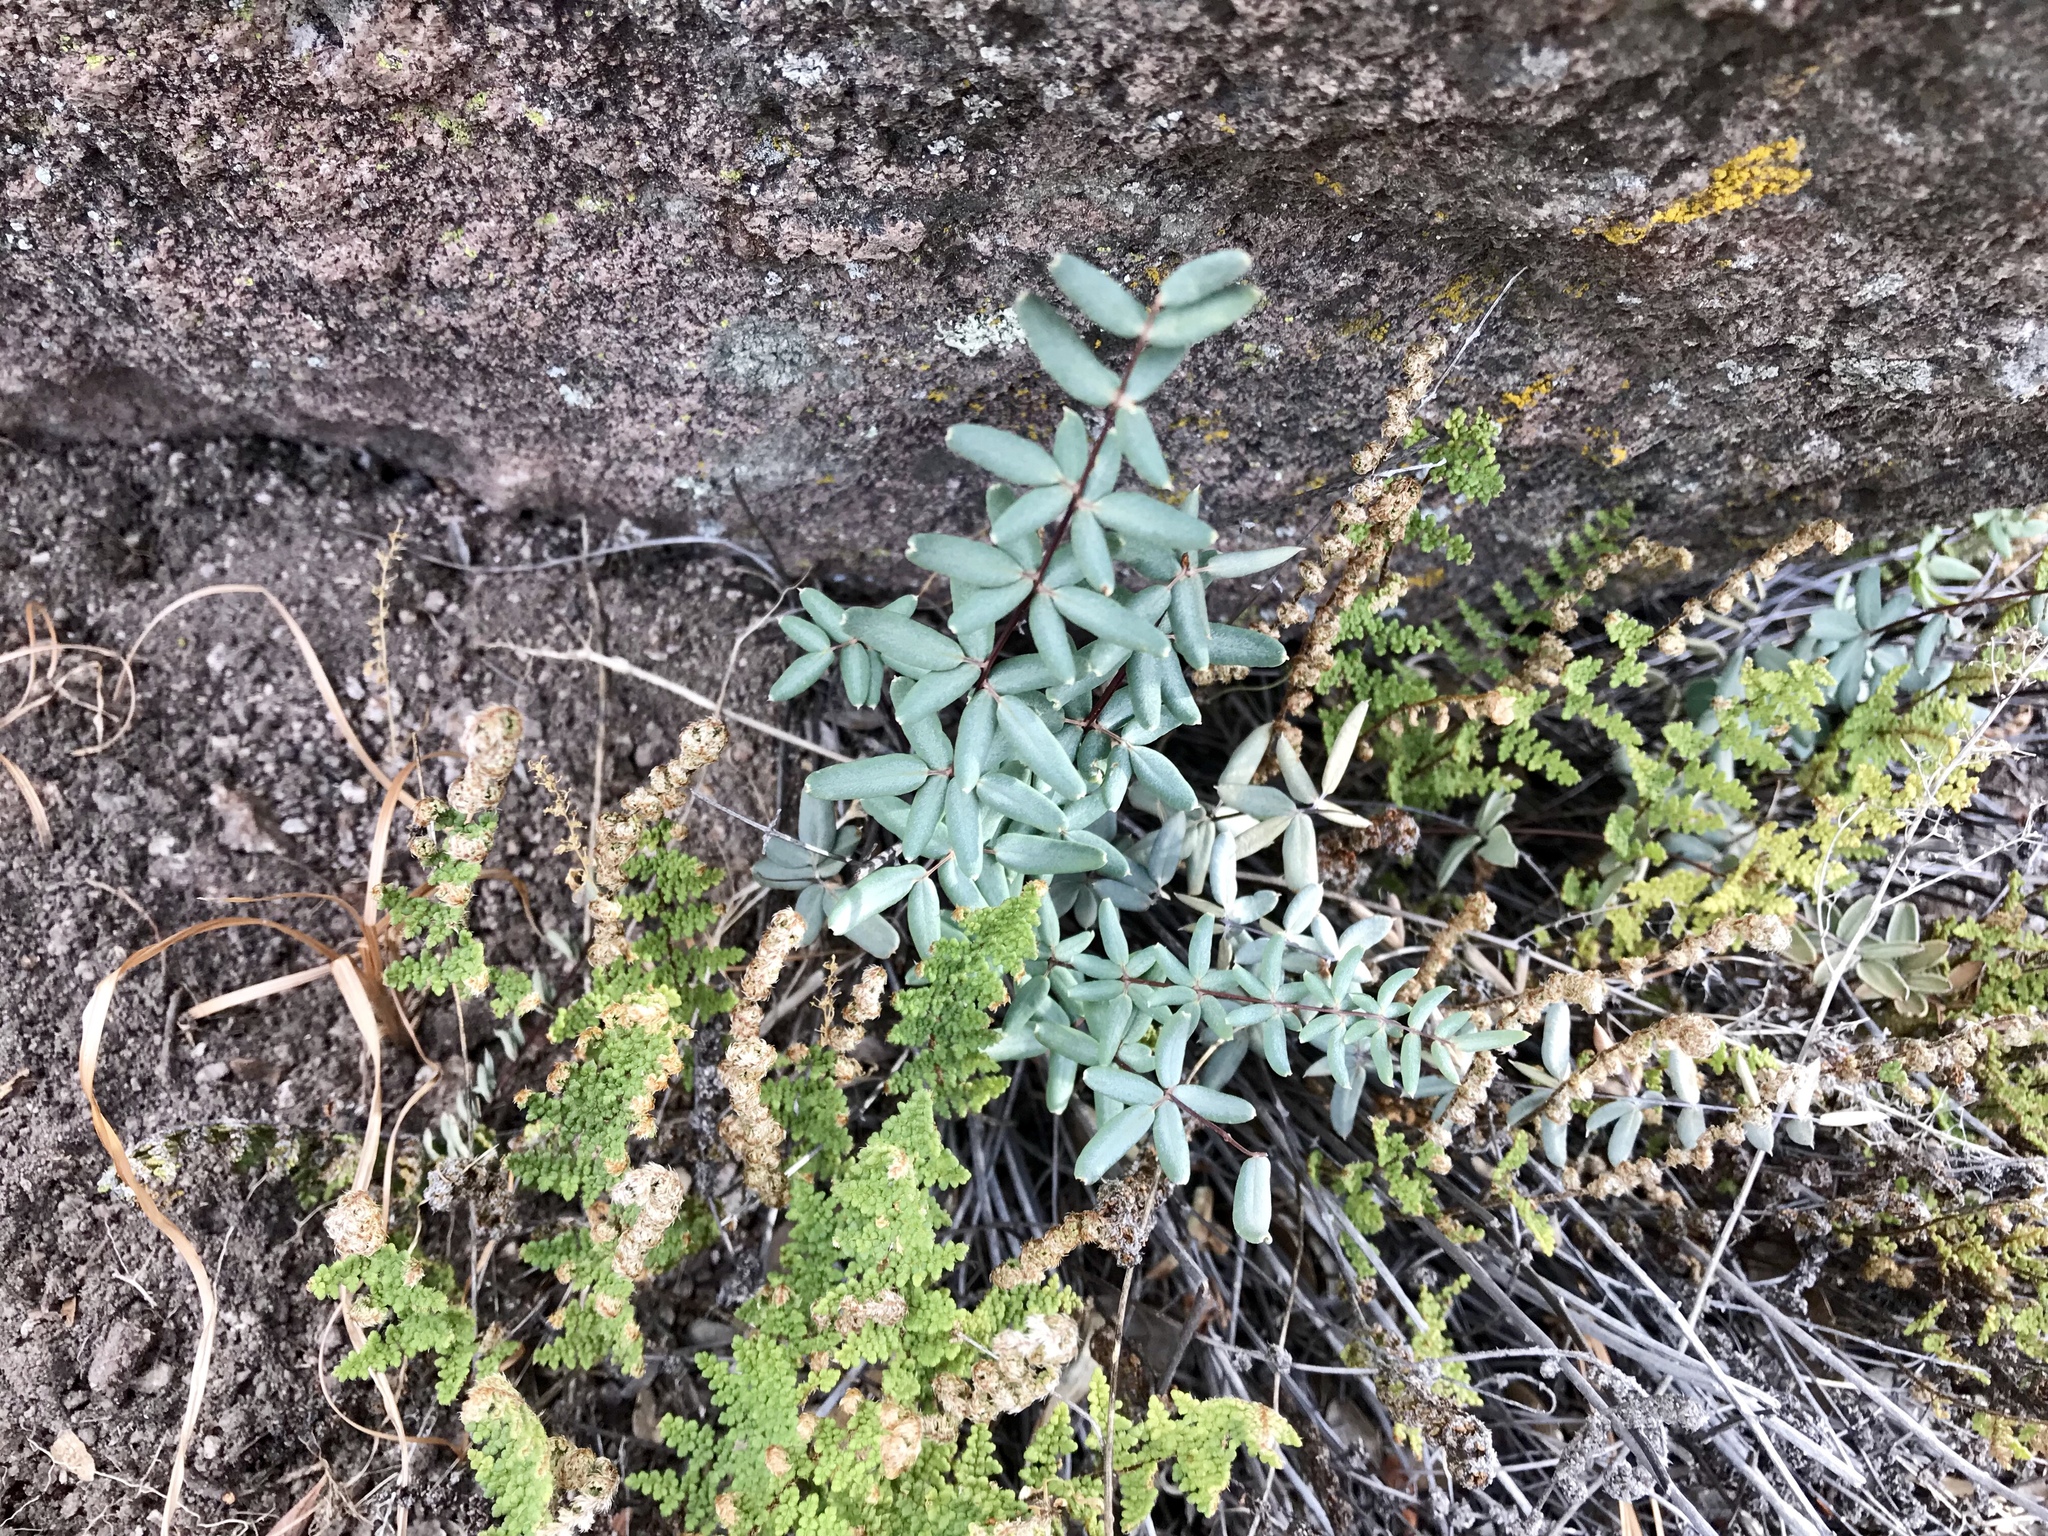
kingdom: Plantae
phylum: Tracheophyta
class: Polypodiopsida
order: Polypodiales
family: Pteridaceae
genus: Pellaea
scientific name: Pellaea wrightiana
